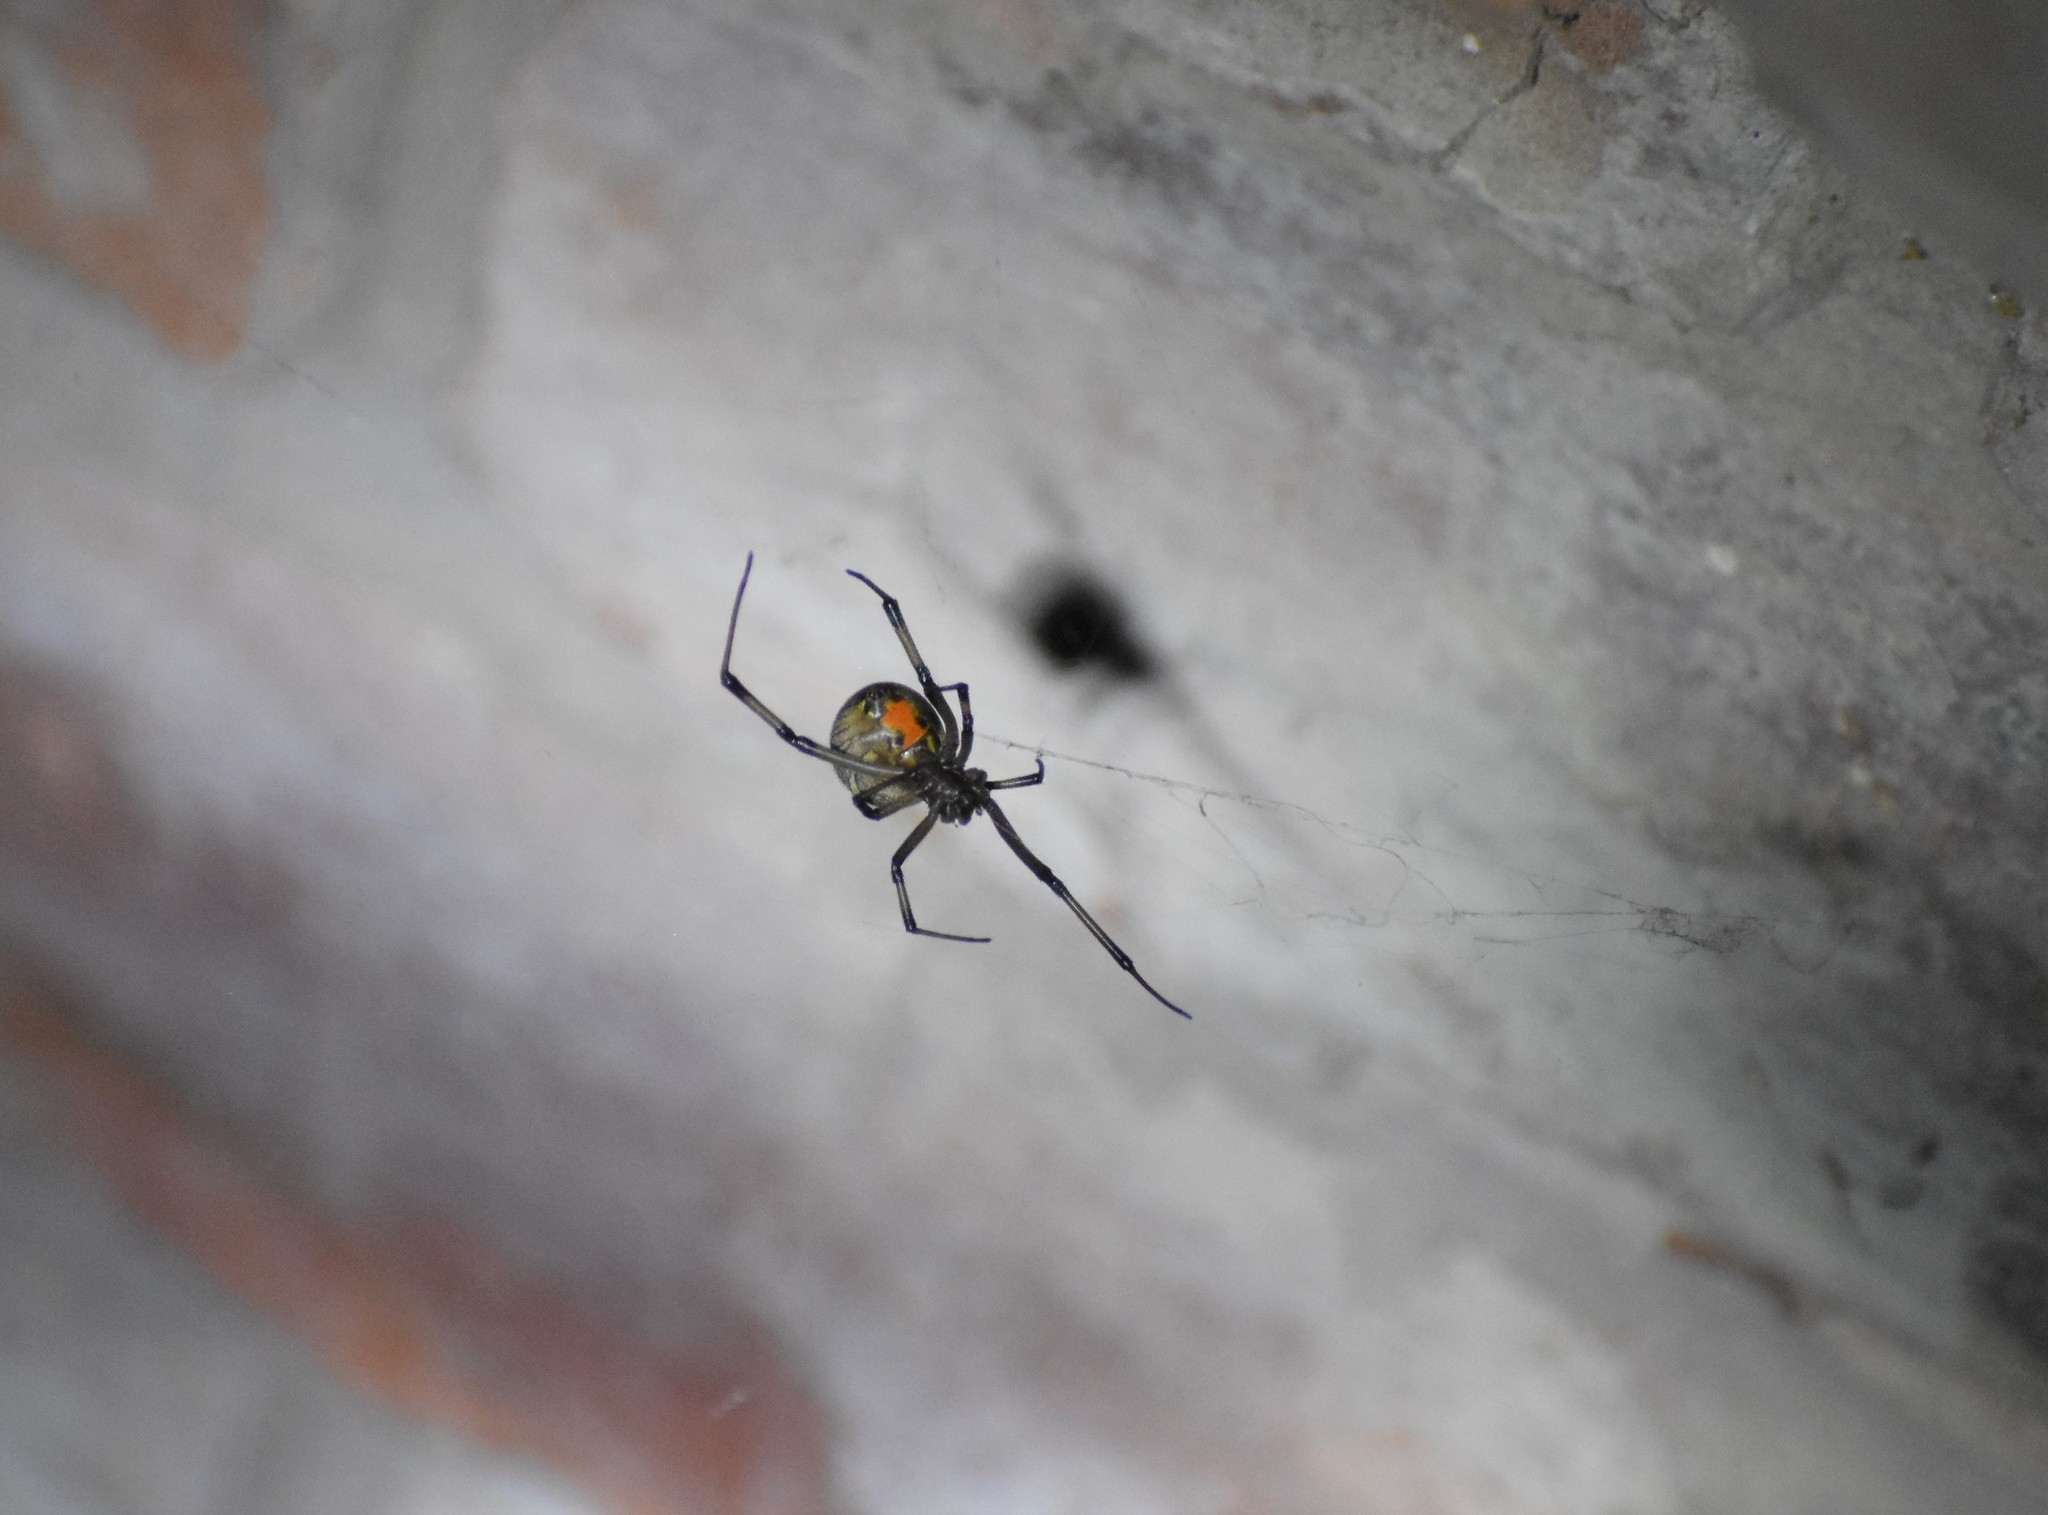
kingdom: Animalia
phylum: Arthropoda
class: Arachnida
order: Araneae
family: Theridiidae
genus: Latrodectus
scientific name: Latrodectus geometricus
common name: Brown widow spider
